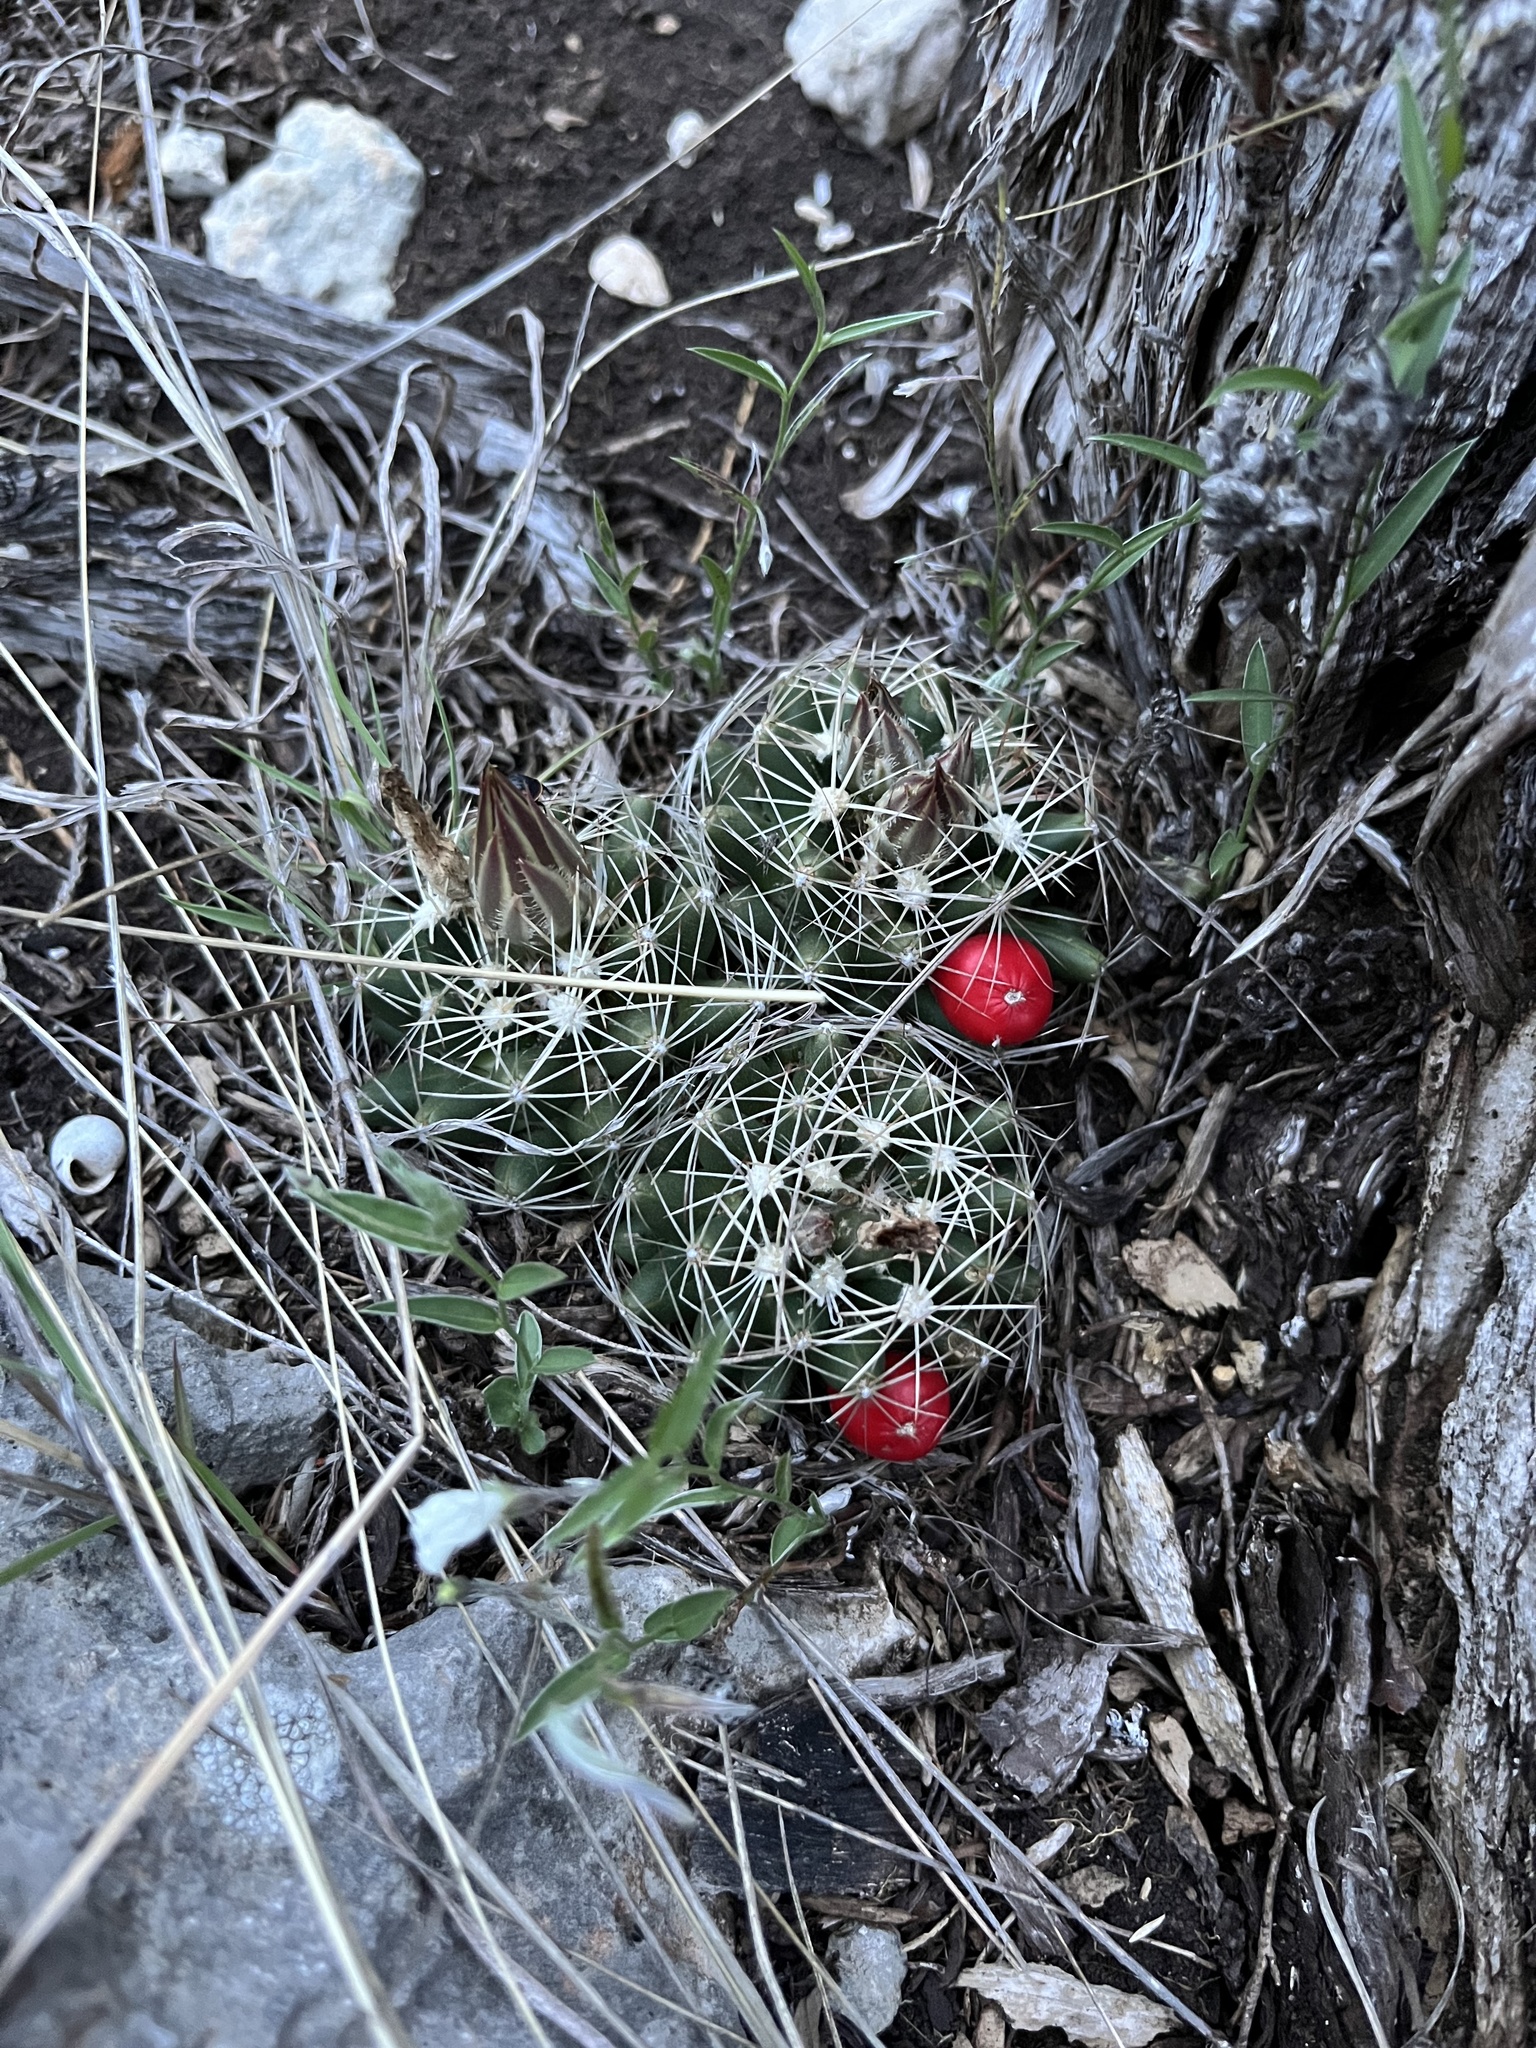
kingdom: Plantae
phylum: Tracheophyta
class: Magnoliopsida
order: Caryophyllales
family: Cactaceae
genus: Pelecyphora
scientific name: Pelecyphora missouriensis
